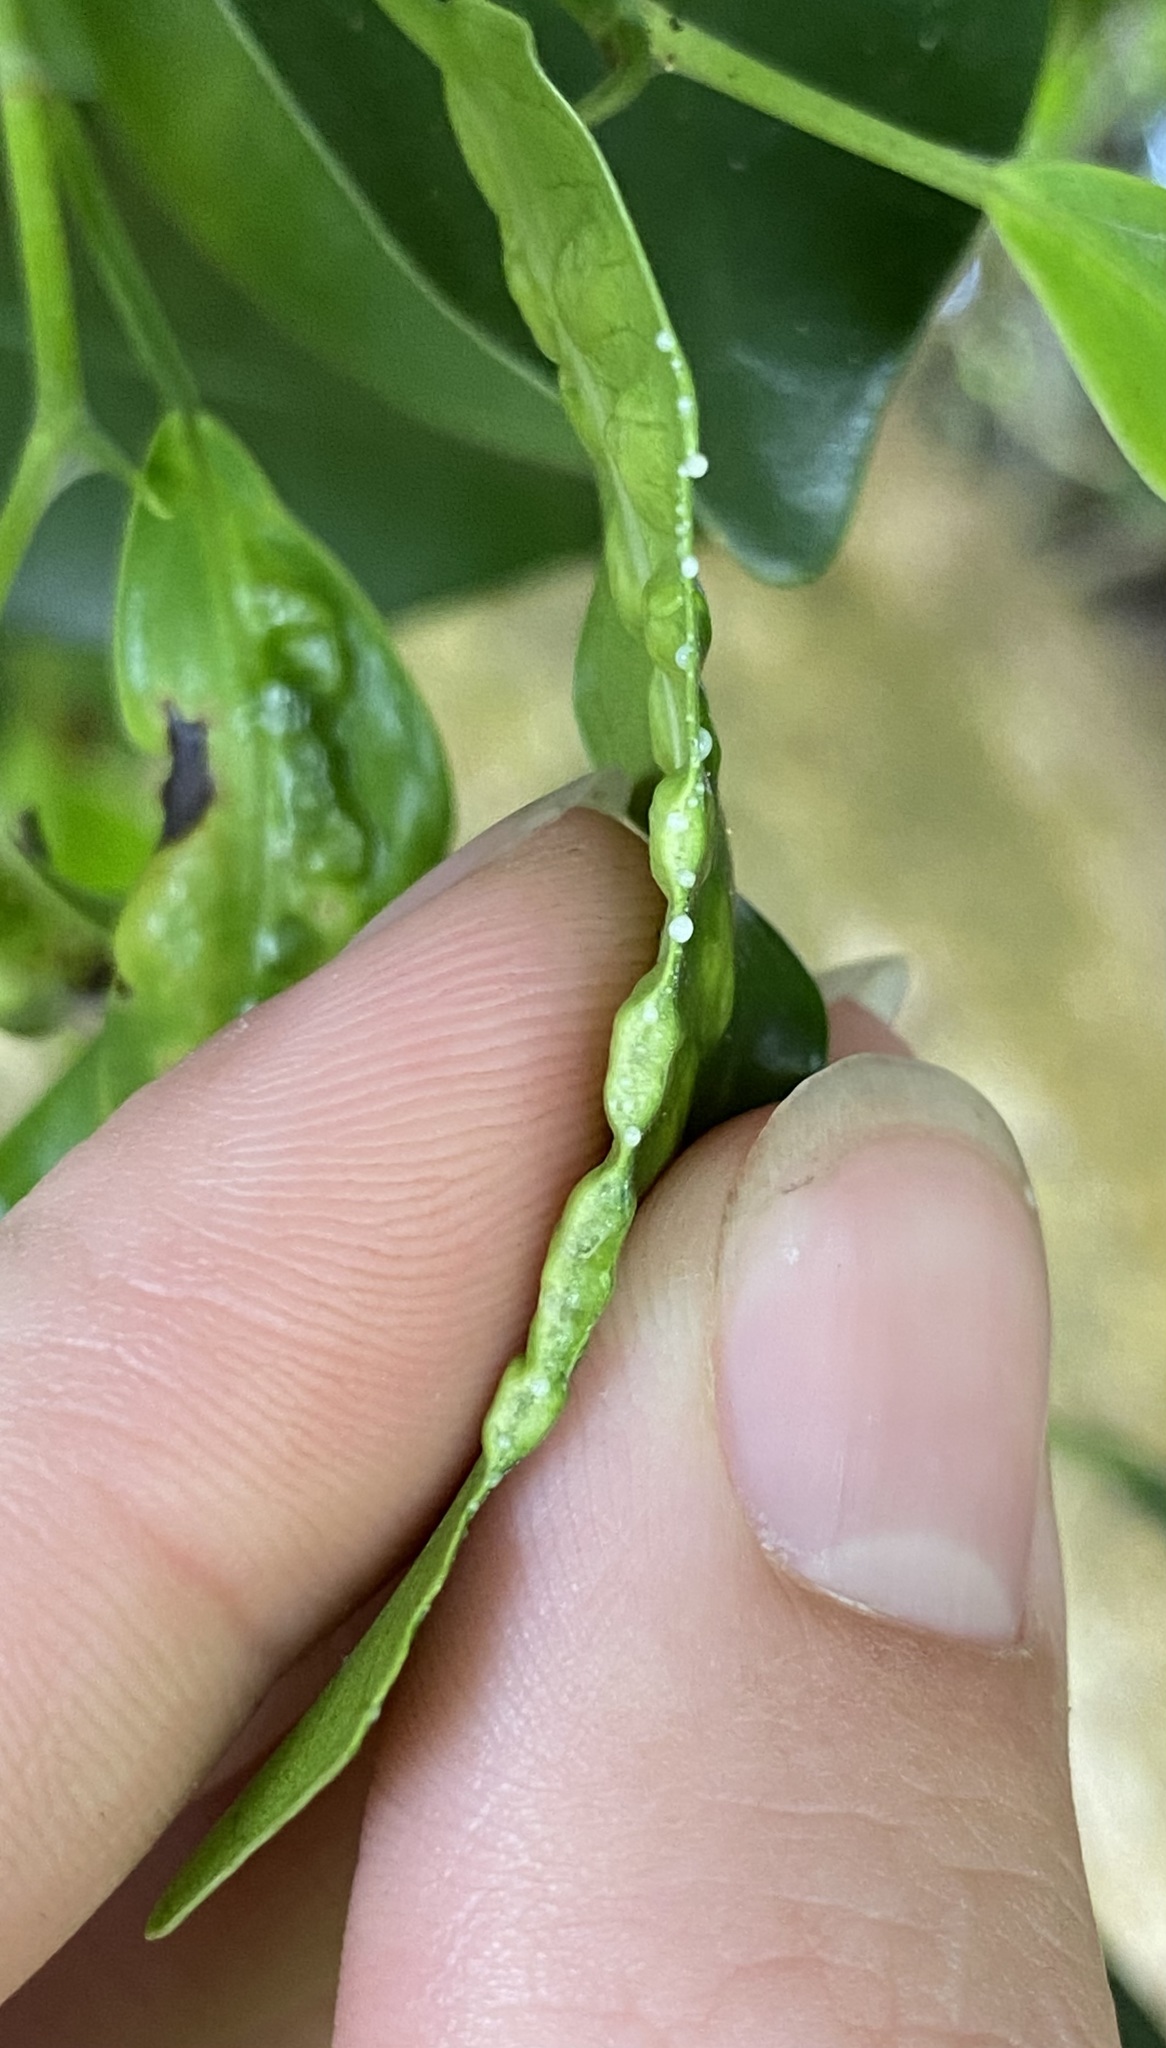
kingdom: Animalia
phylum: Arthropoda
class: Insecta
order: Hymenoptera
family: Agaonidae
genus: Josephiella
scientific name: Josephiella microcarpae
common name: Wasp
